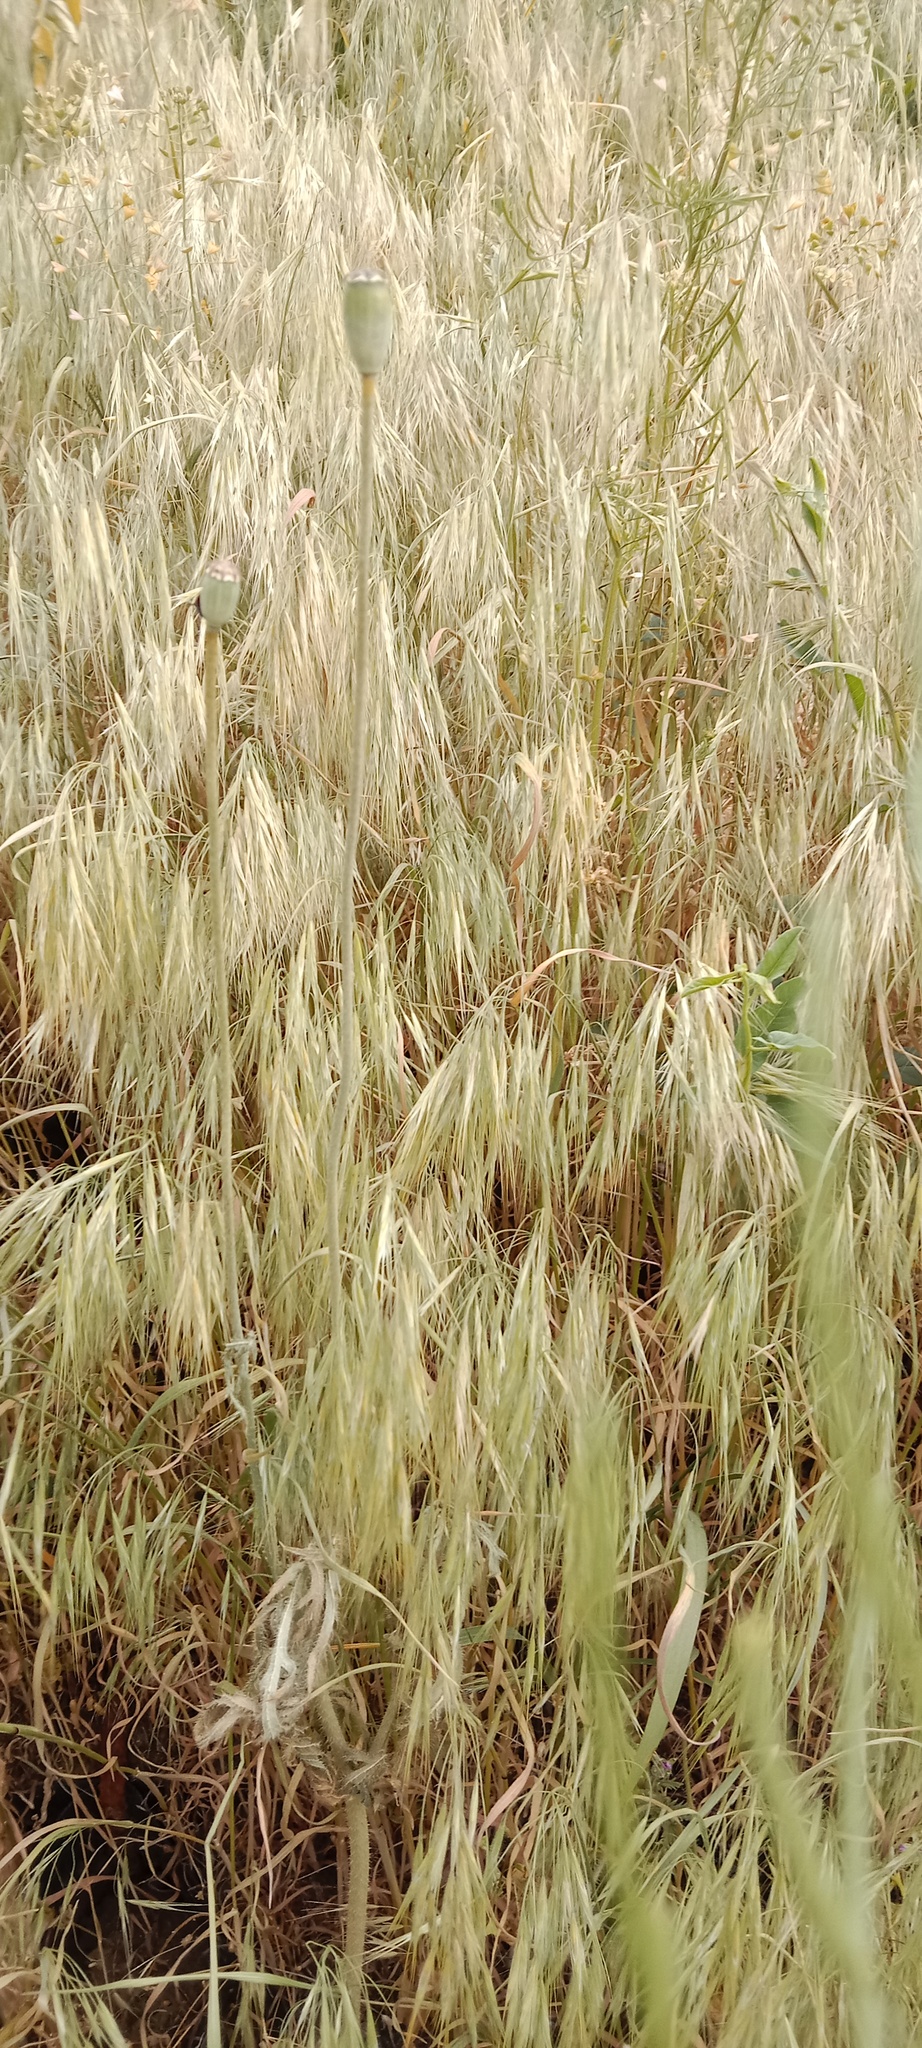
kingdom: Plantae
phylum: Tracheophyta
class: Liliopsida
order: Poales
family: Poaceae
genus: Bromus
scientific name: Bromus tectorum
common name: Cheatgrass
